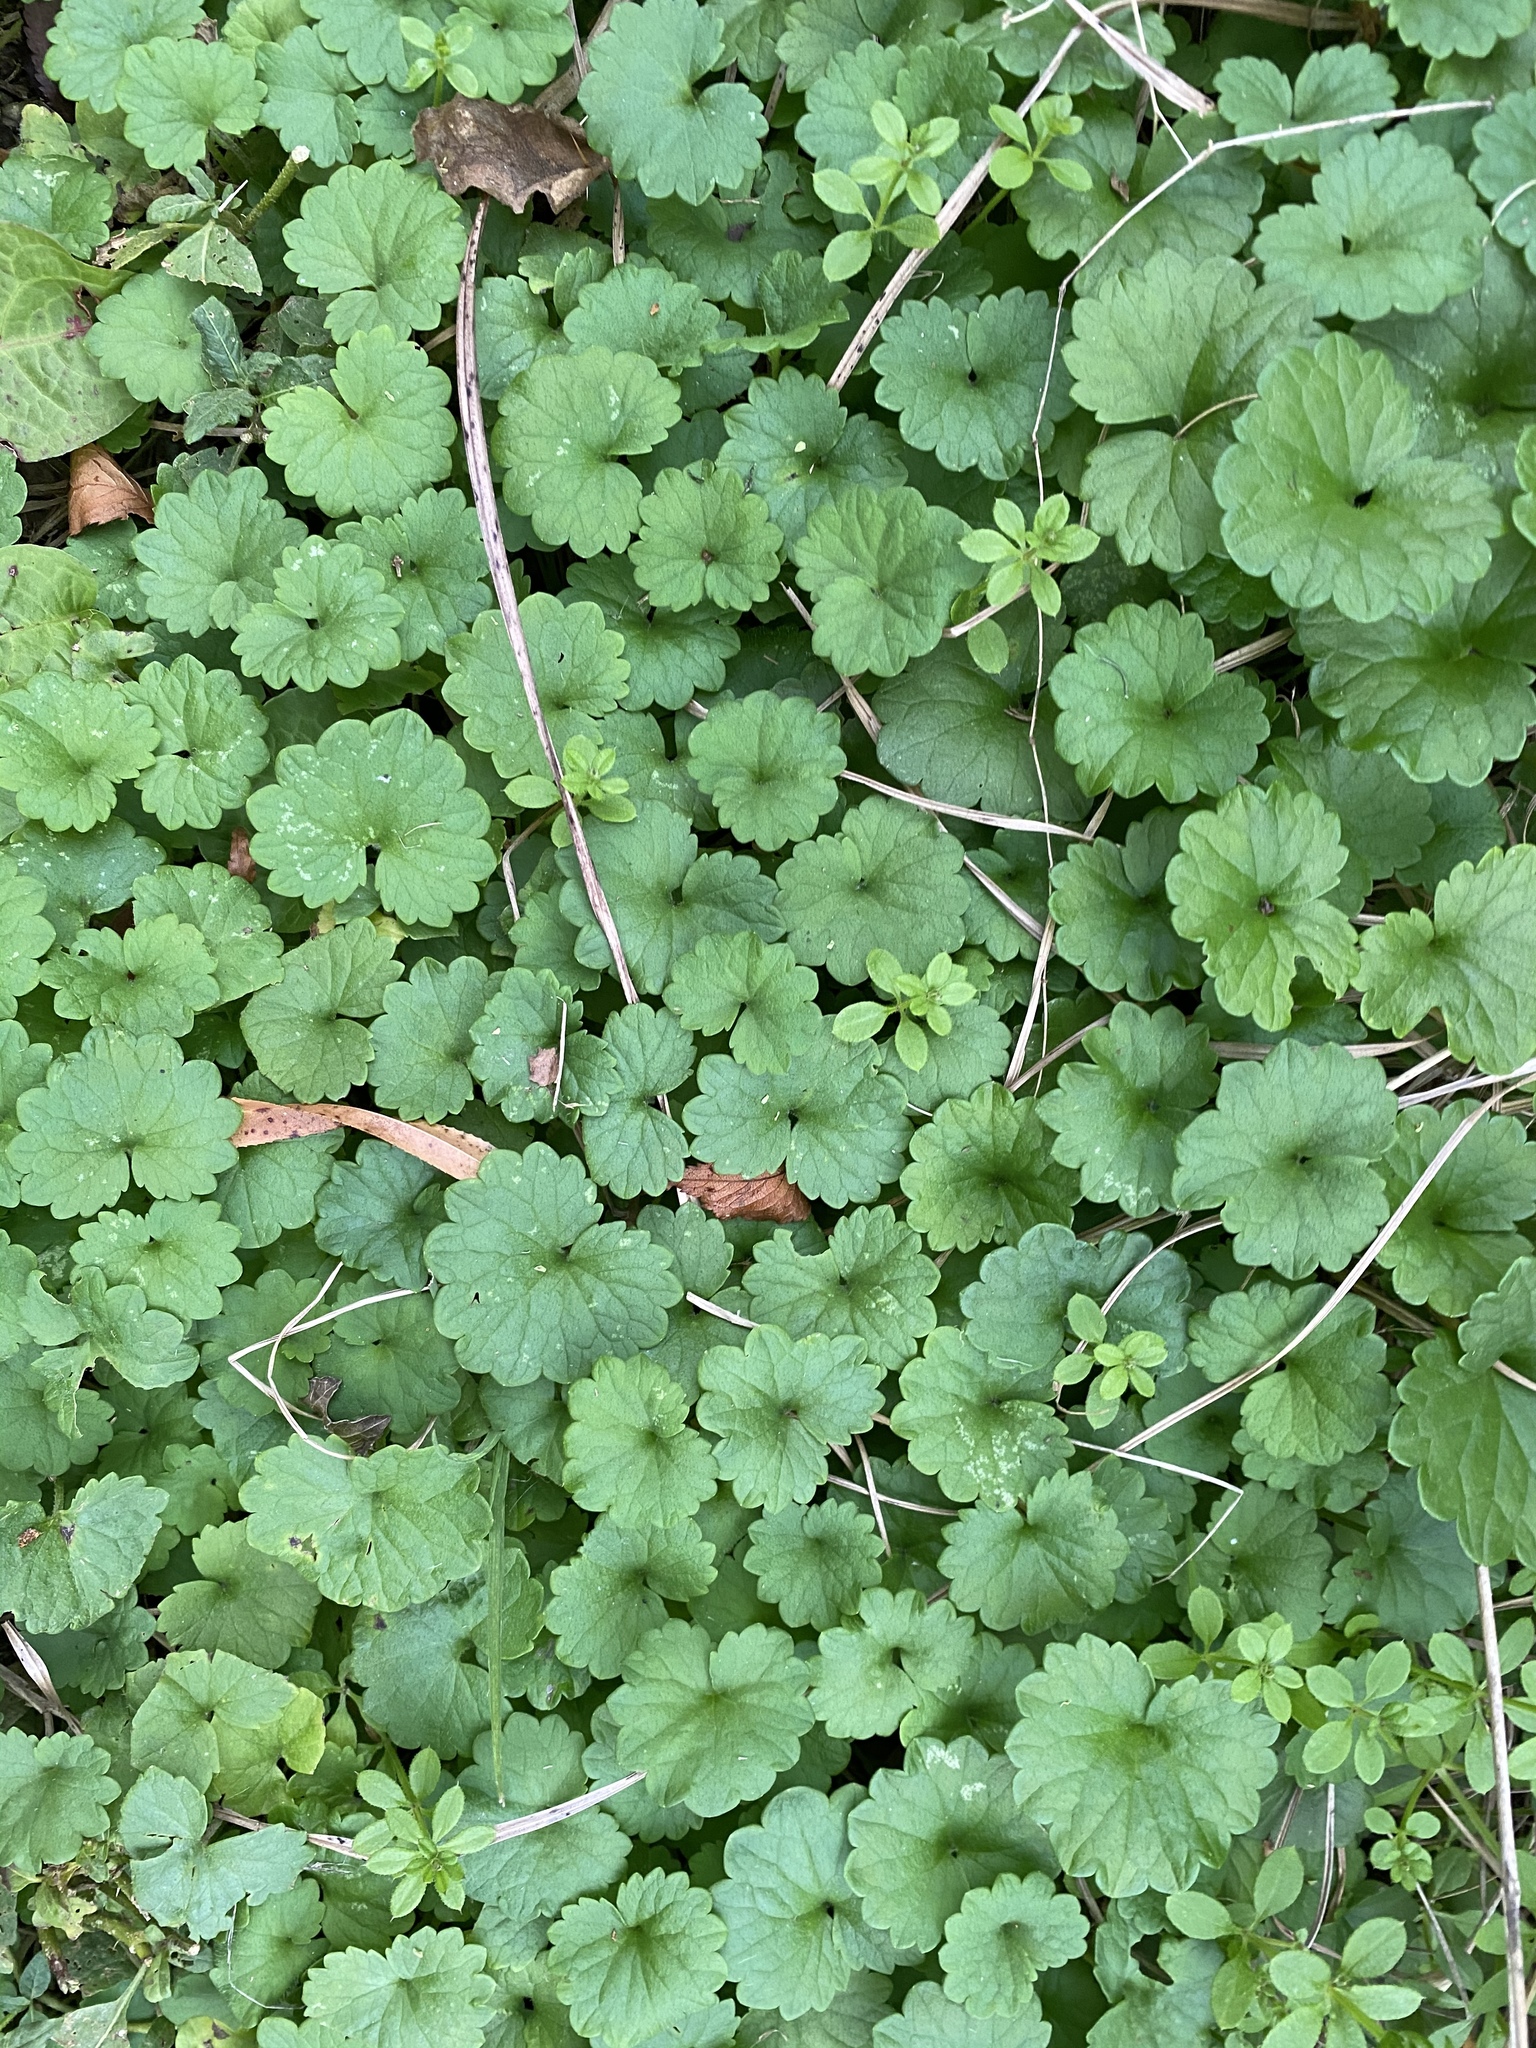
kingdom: Plantae
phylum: Tracheophyta
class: Magnoliopsida
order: Lamiales
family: Lamiaceae
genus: Glechoma
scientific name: Glechoma hederacea
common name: Ground ivy
